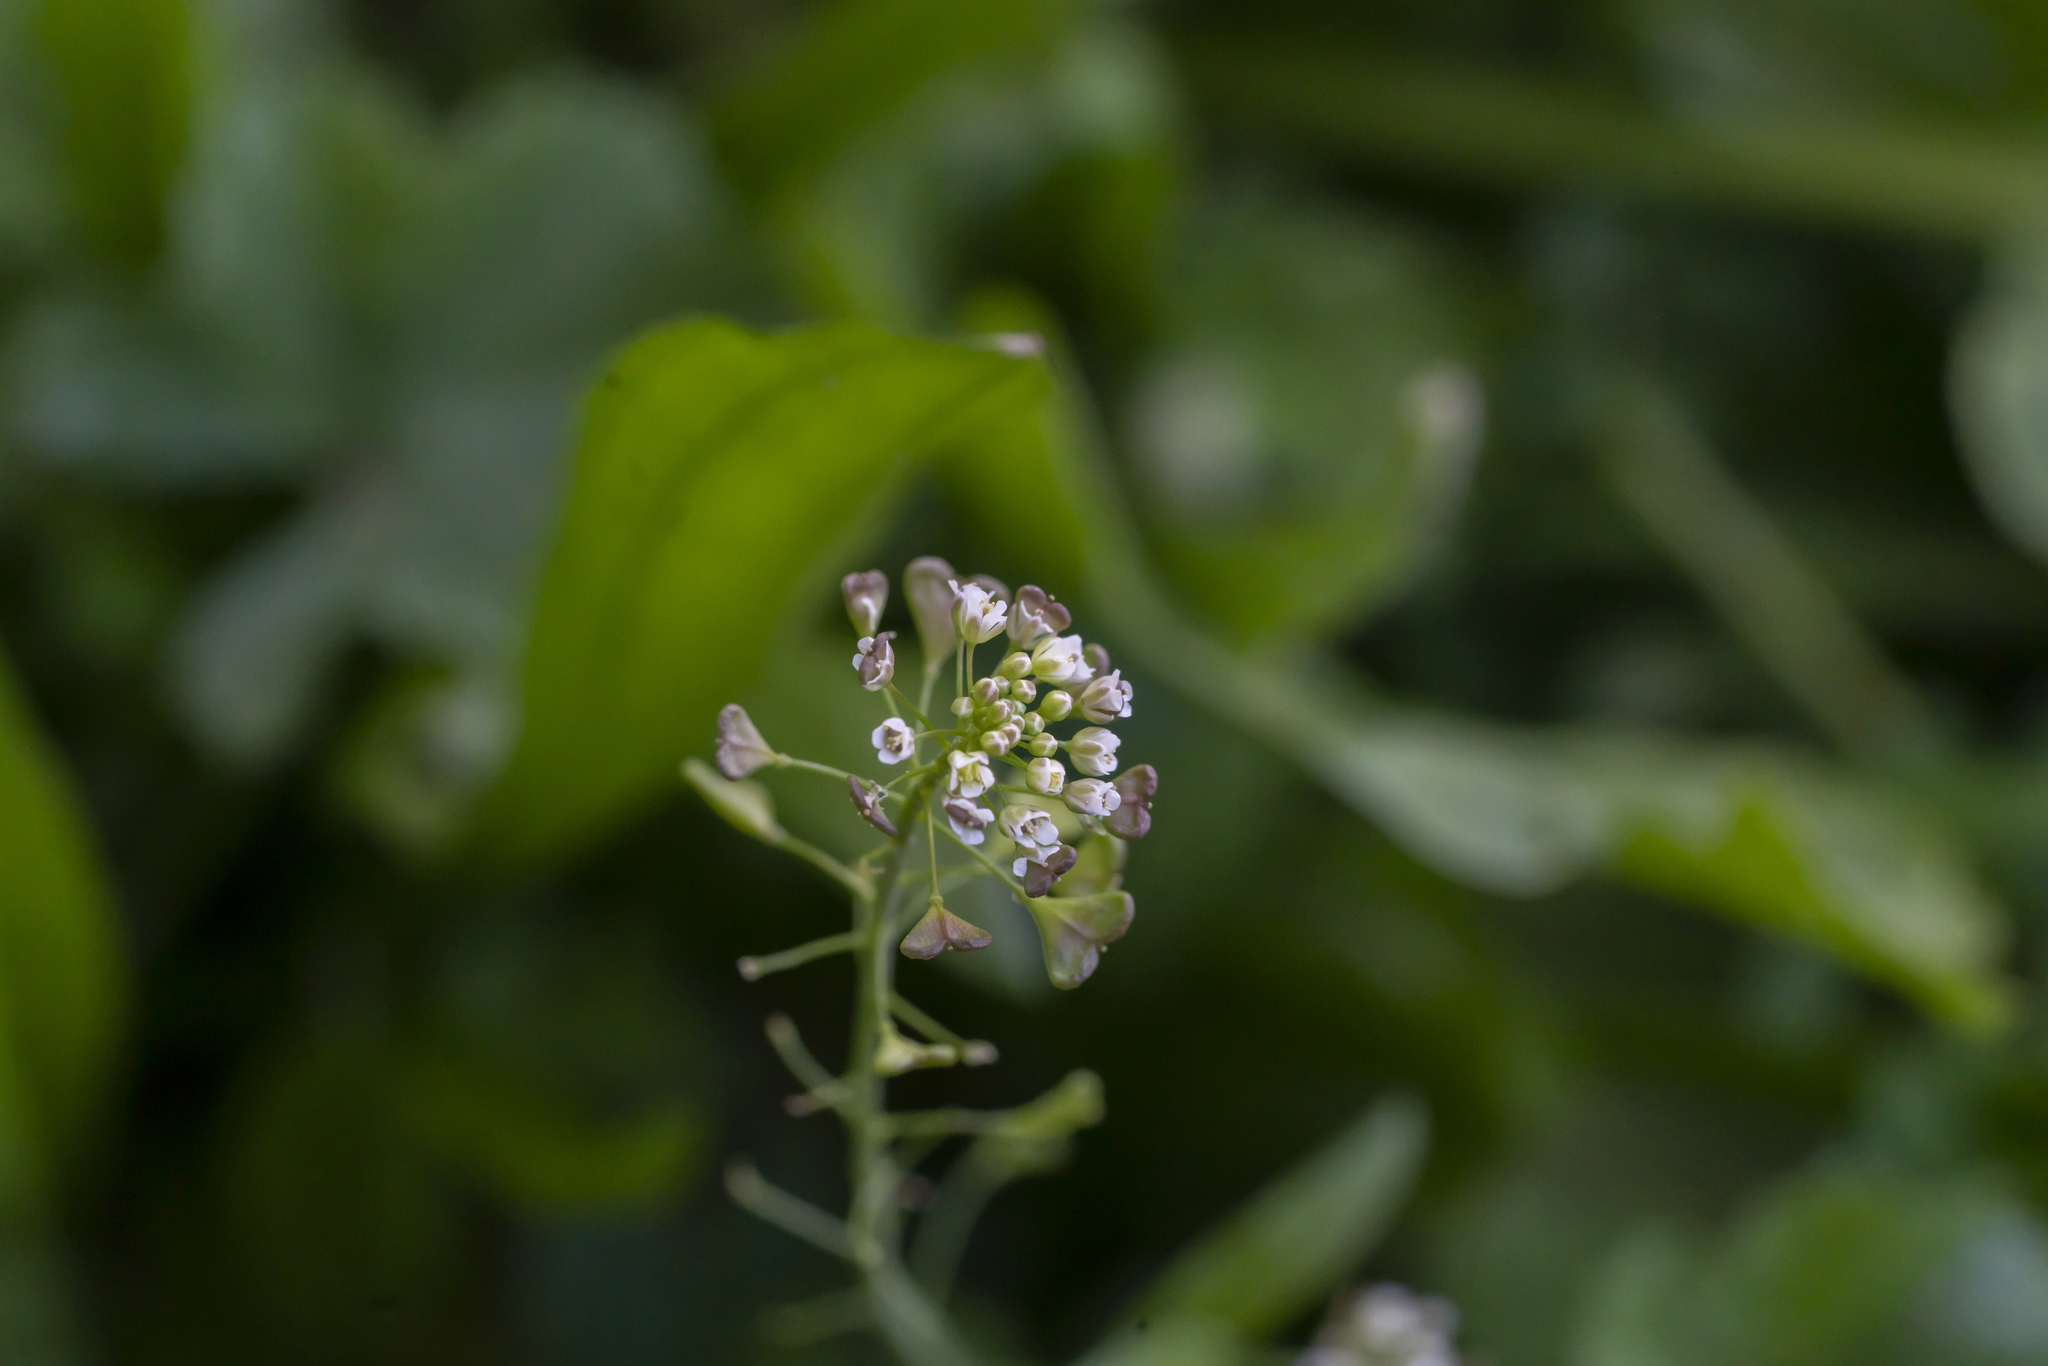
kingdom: Plantae
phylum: Tracheophyta
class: Magnoliopsida
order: Brassicales
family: Brassicaceae
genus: Capsella
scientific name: Capsella bursa-pastoris
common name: Shepherd's purse
